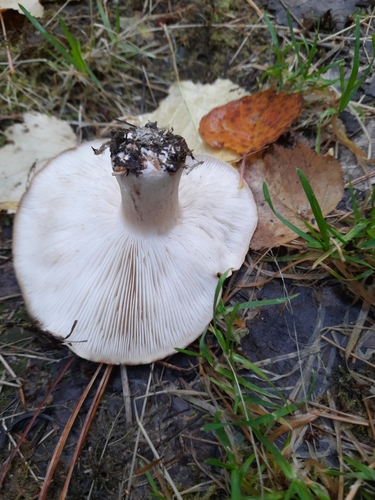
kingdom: Fungi
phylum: Basidiomycota
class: Agaricomycetes
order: Agaricales
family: Tricholomataceae
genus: Tricholoma
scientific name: Tricholoma
